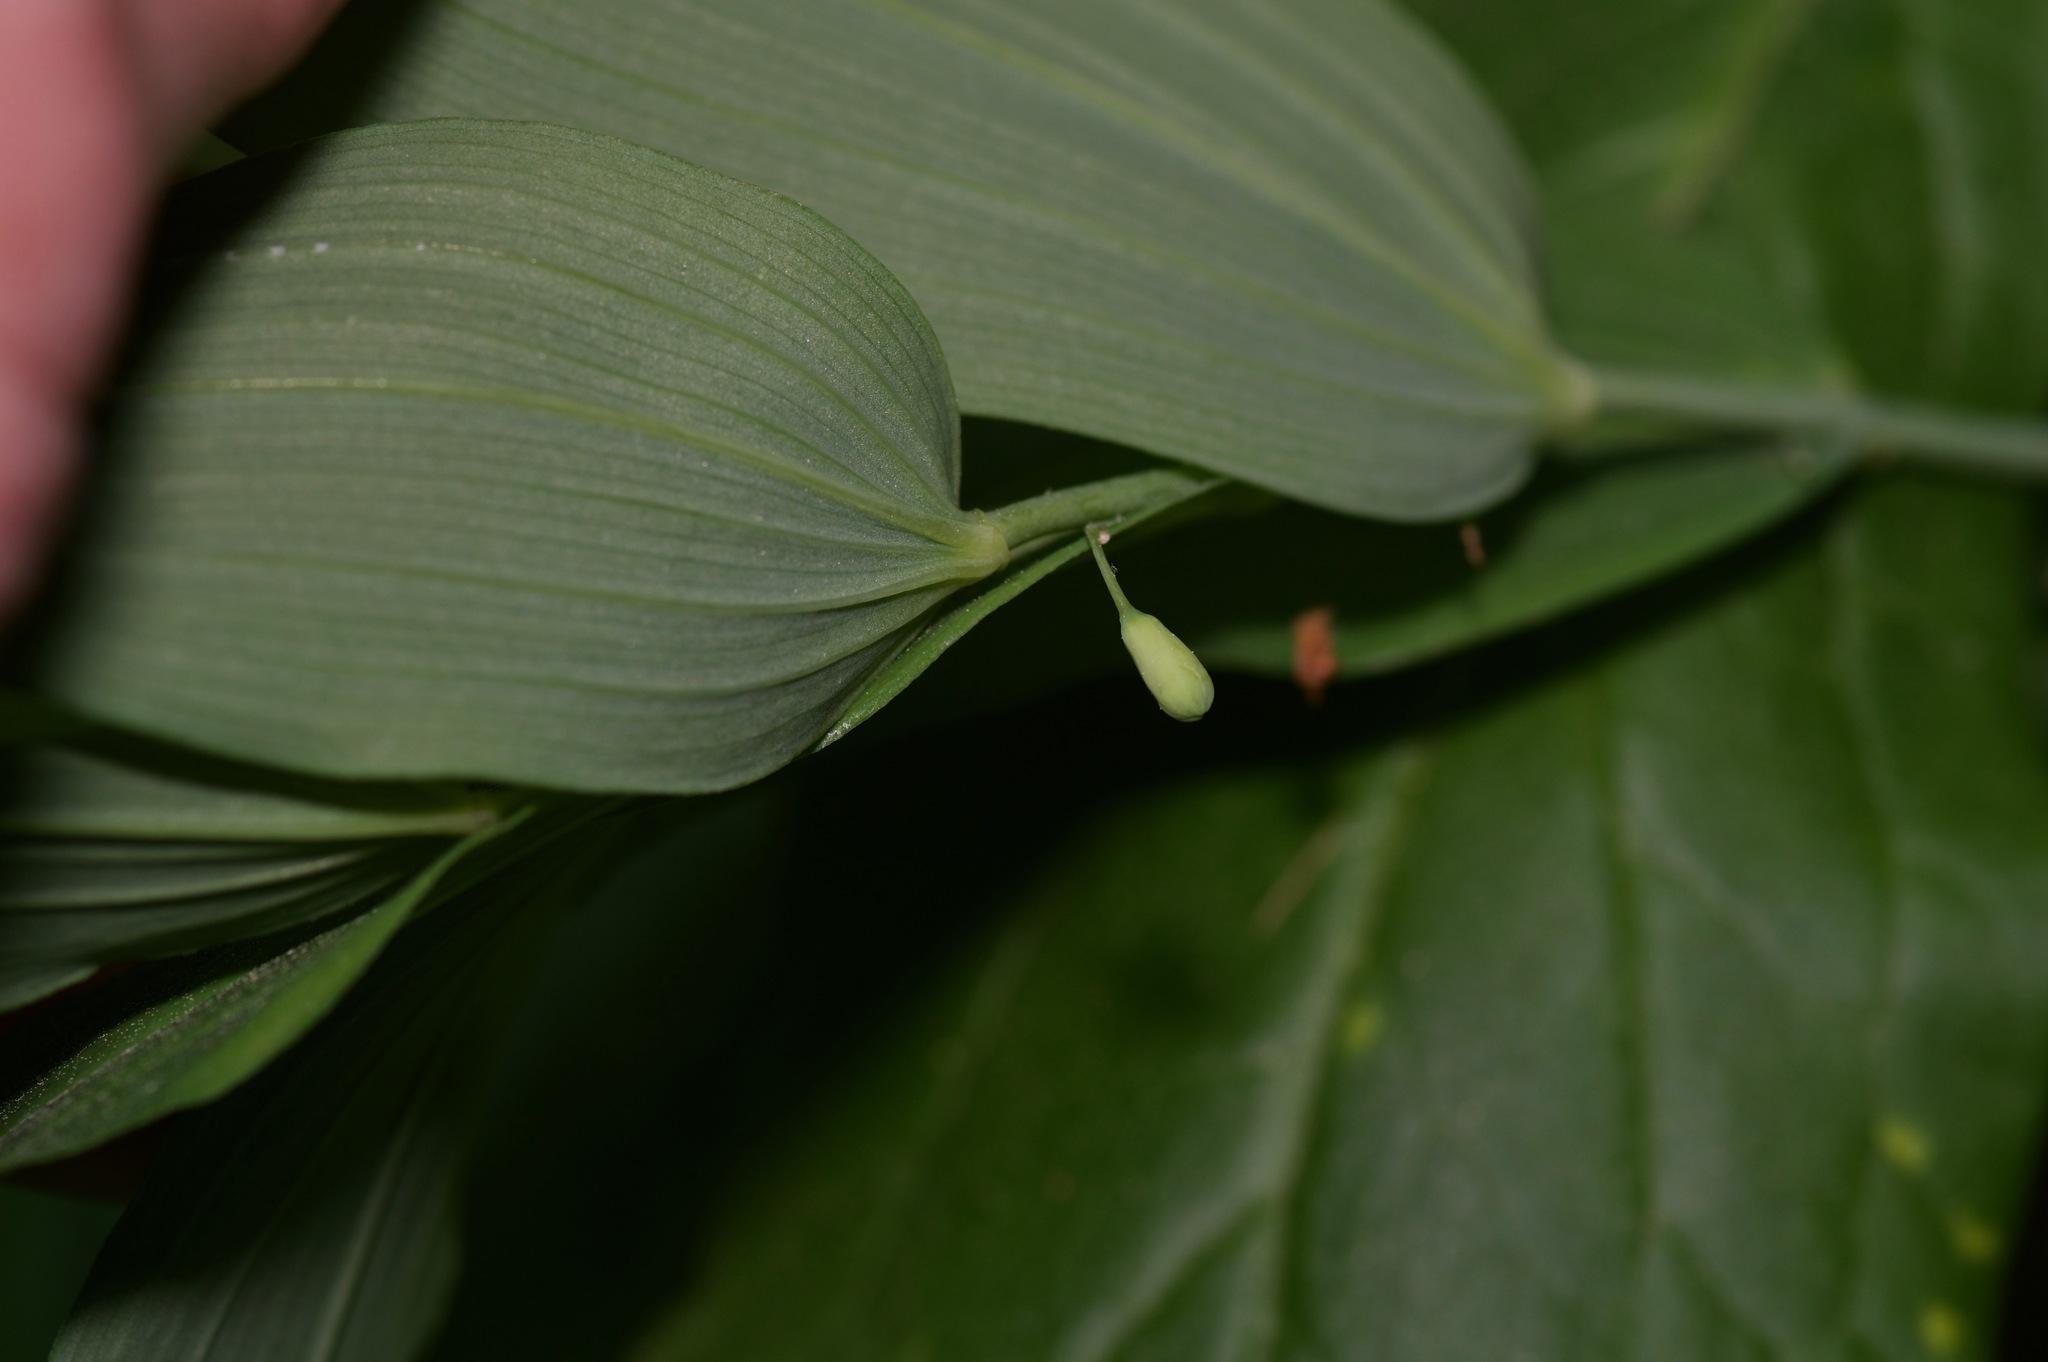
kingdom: Plantae
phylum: Tracheophyta
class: Liliopsida
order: Asparagales
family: Asparagaceae
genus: Polygonatum
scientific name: Polygonatum biflorum
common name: American solomon's-seal
